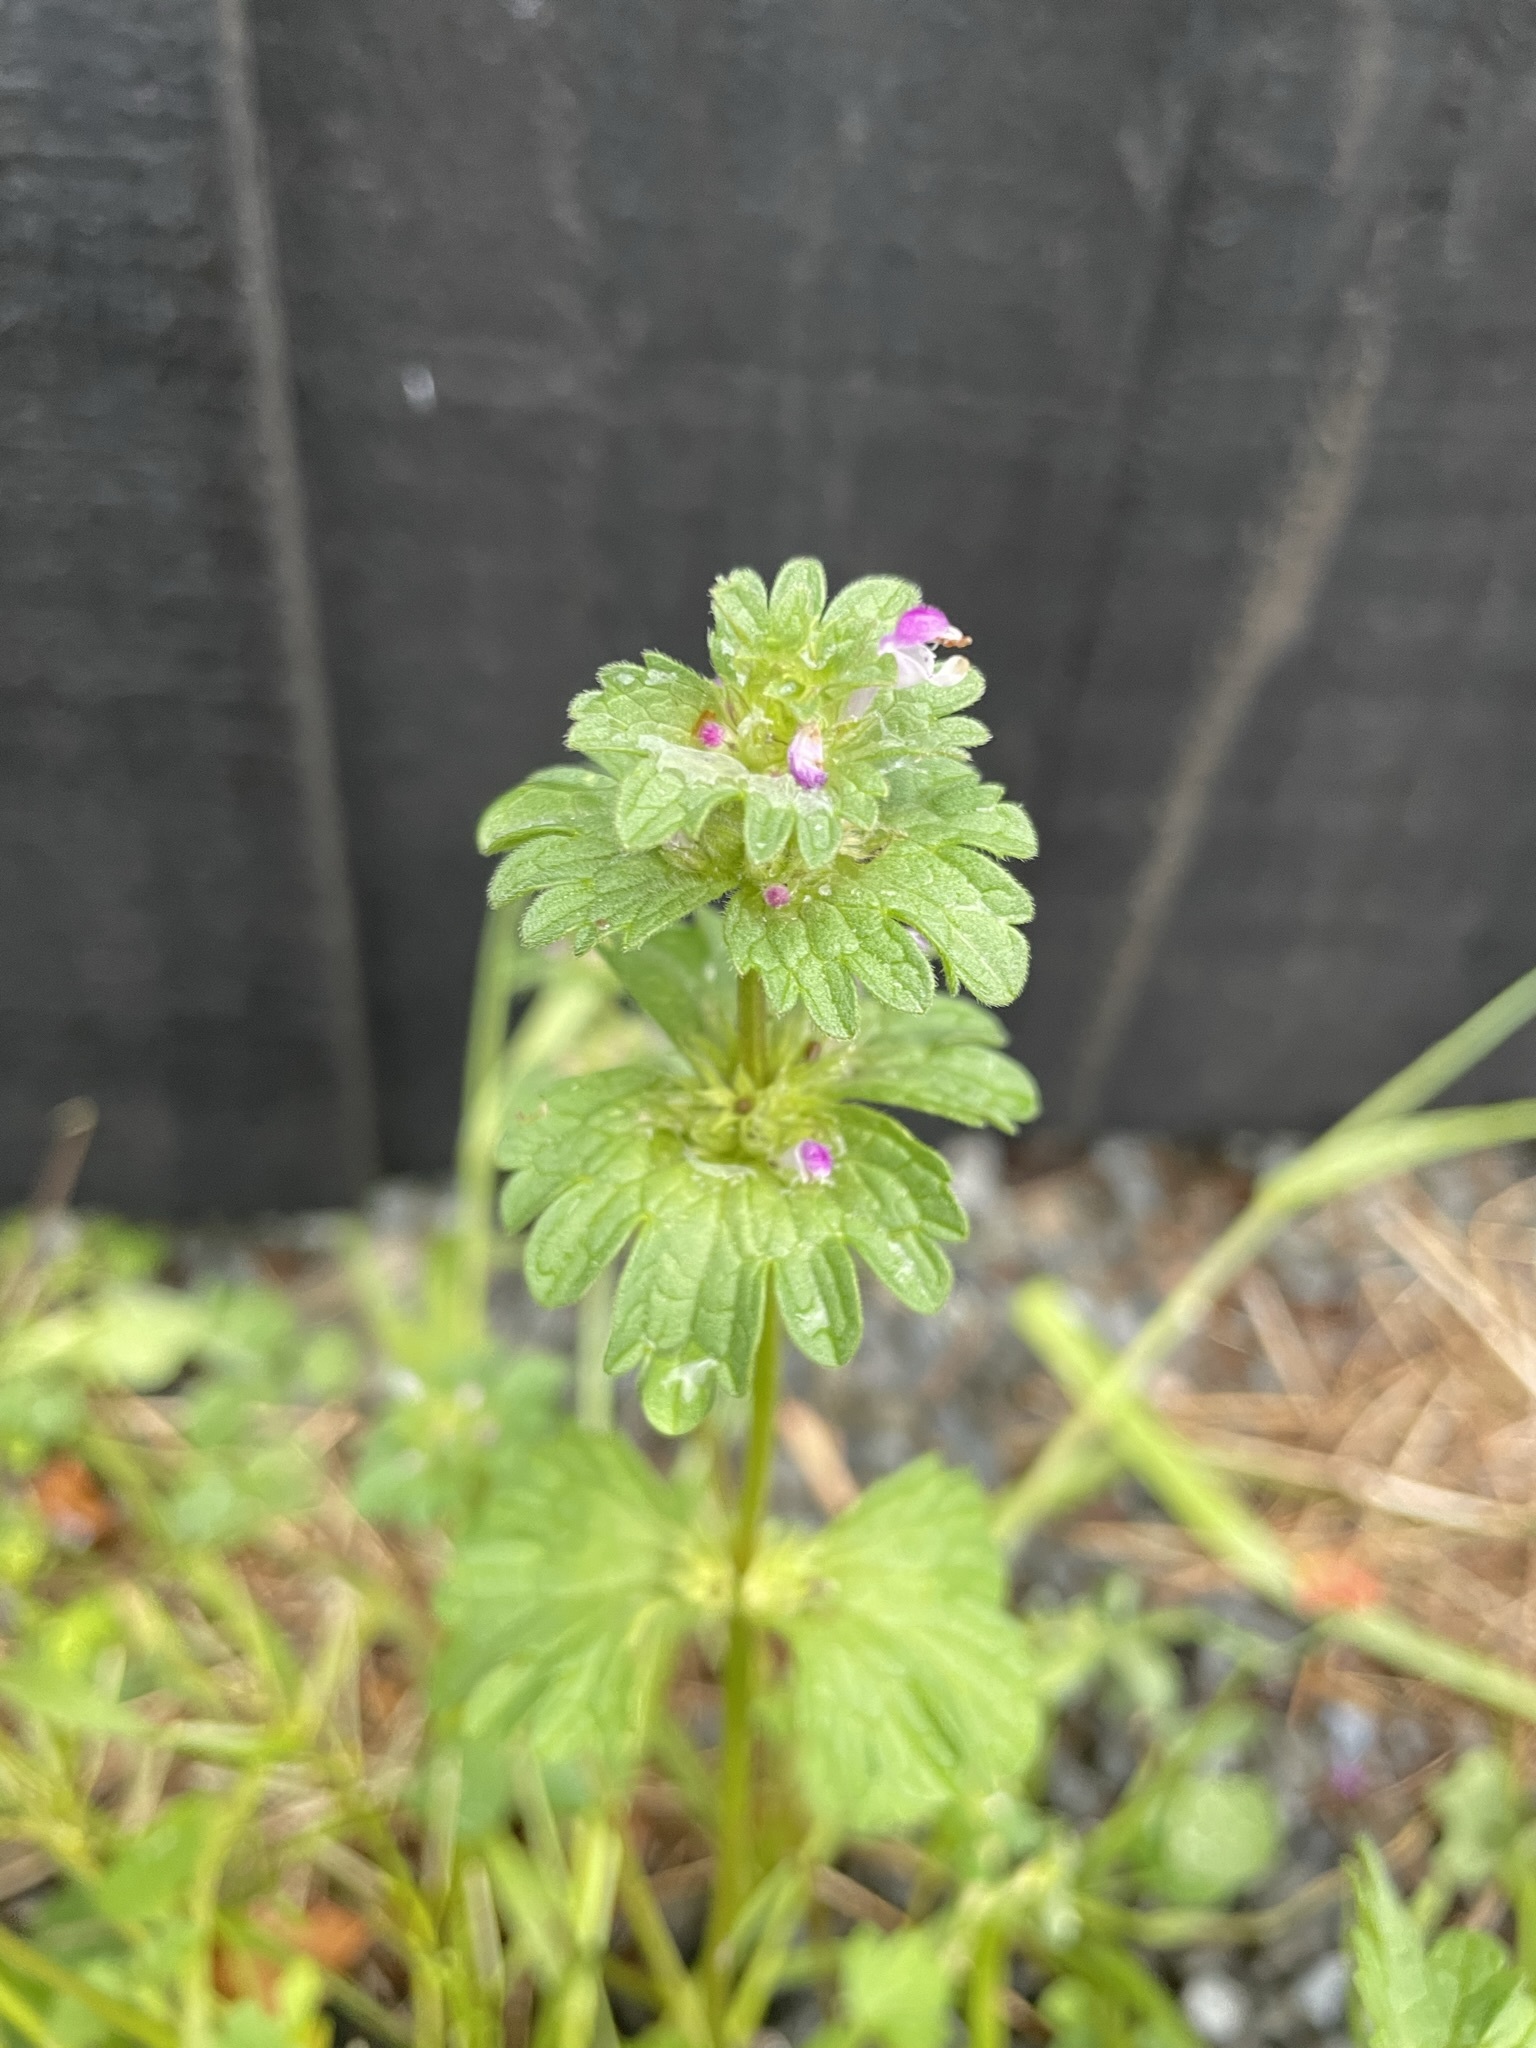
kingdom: Plantae
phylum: Tracheophyta
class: Magnoliopsida
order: Lamiales
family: Lamiaceae
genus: Lamium
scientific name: Lamium amplexicaule
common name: Henbit dead-nettle
